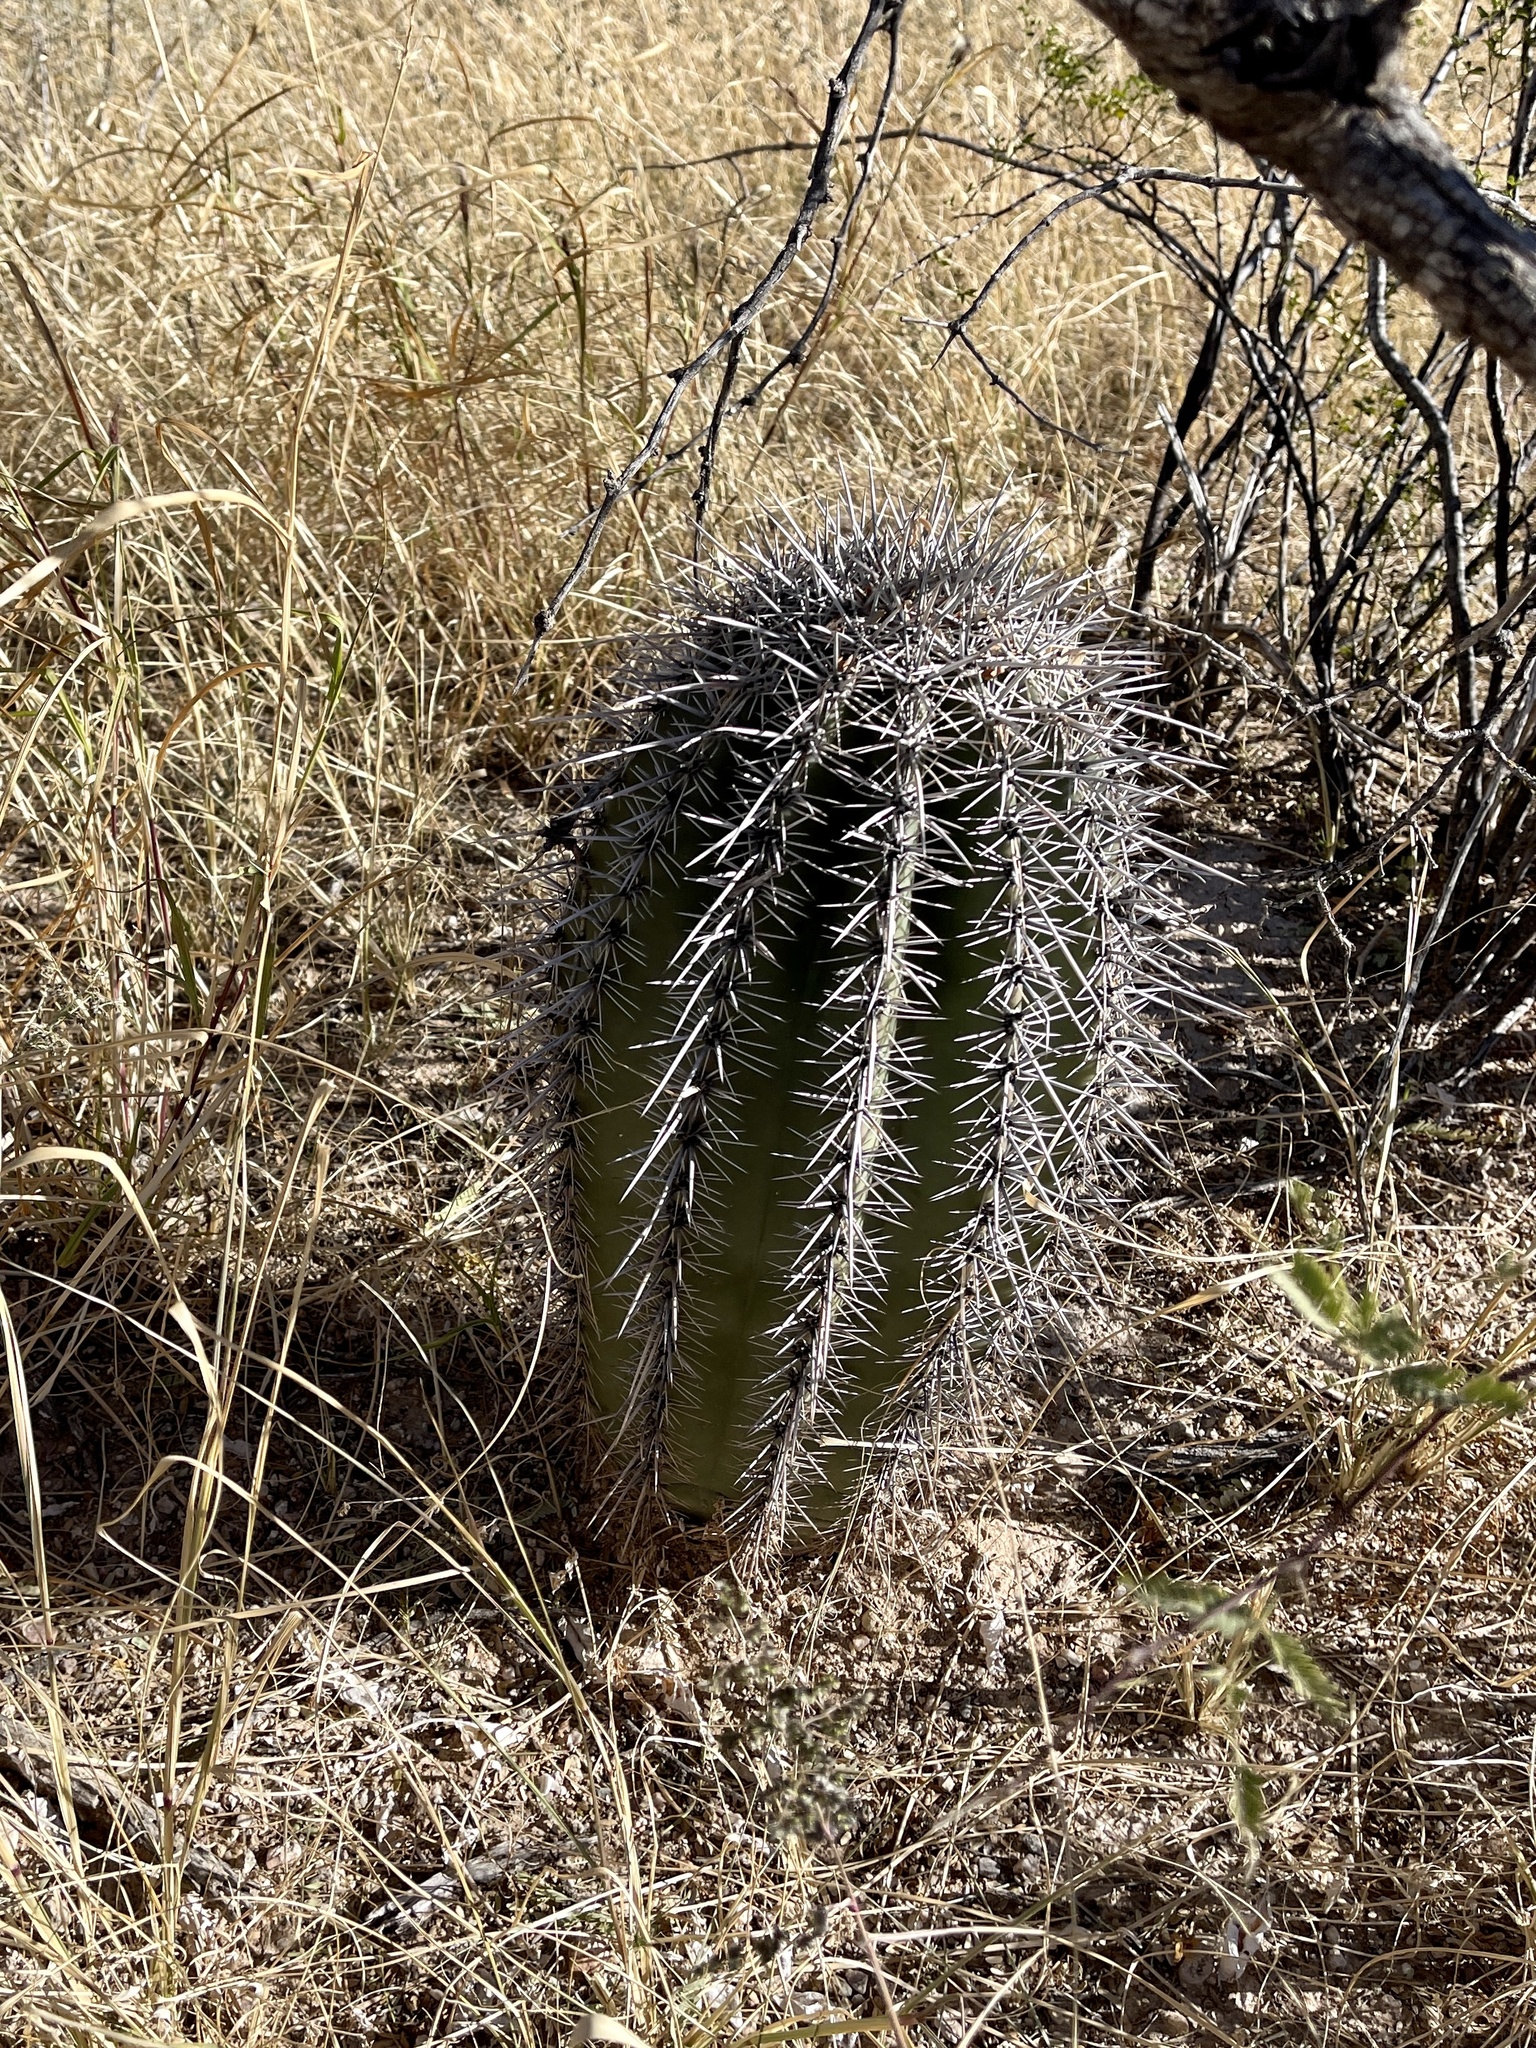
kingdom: Plantae
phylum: Tracheophyta
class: Magnoliopsida
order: Caryophyllales
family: Cactaceae
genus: Carnegiea
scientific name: Carnegiea gigantea
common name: Saguaro
